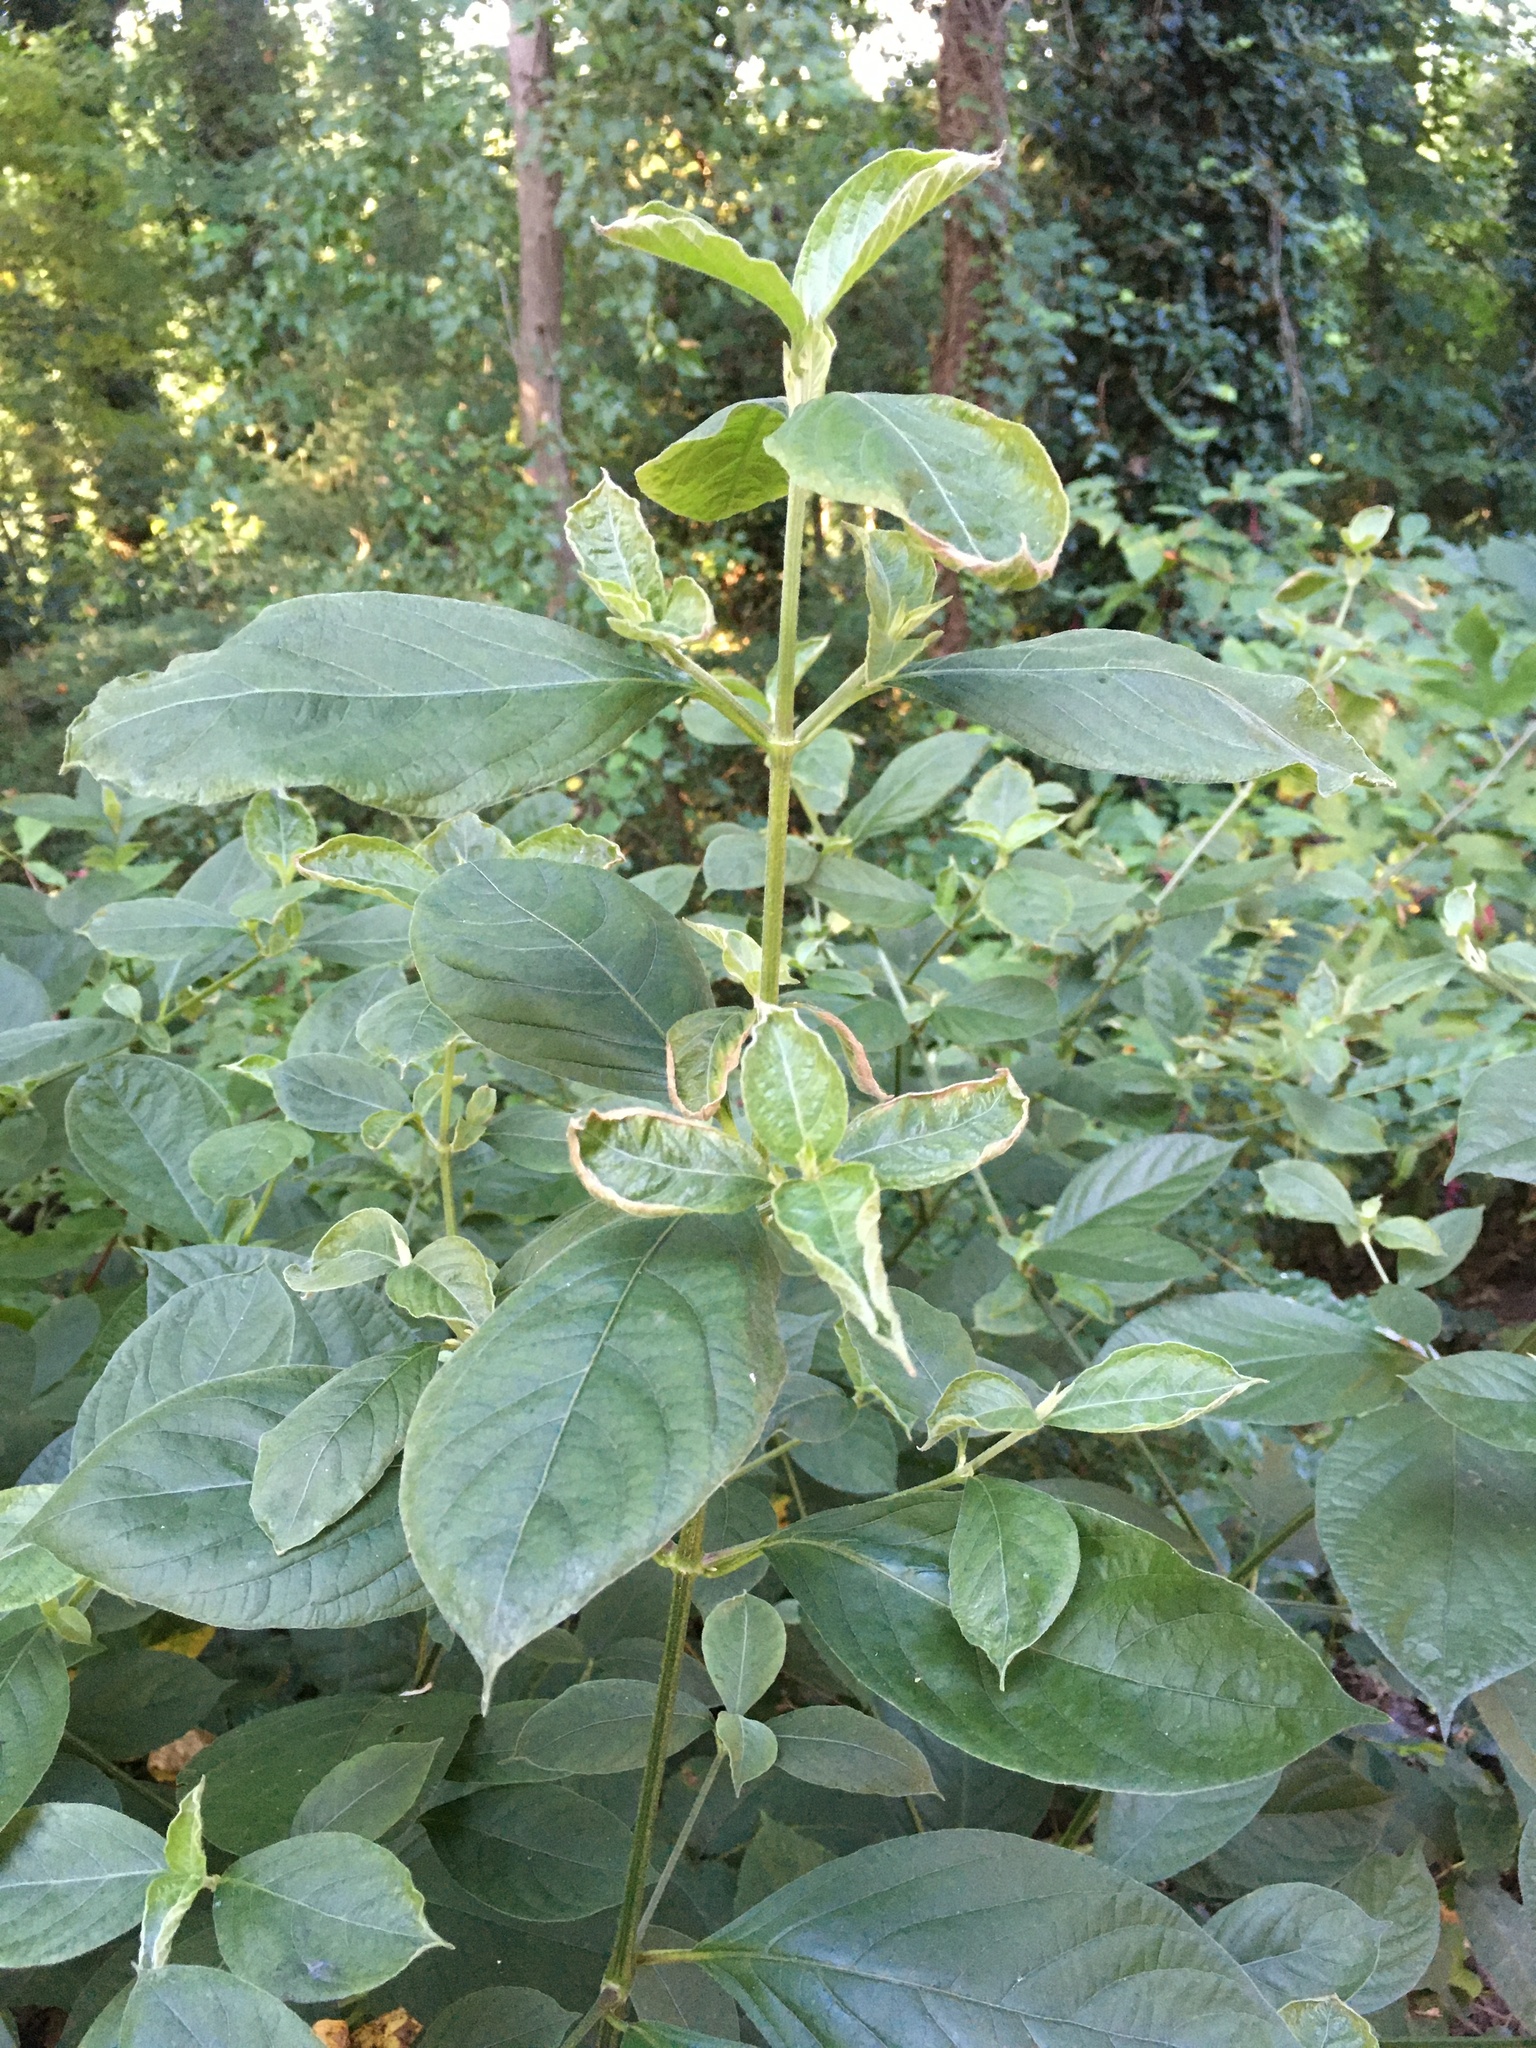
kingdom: Plantae
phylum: Tracheophyta
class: Magnoliopsida
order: Caryophyllales
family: Amaranthaceae
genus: Achyranthes
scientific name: Achyranthes bidentata
